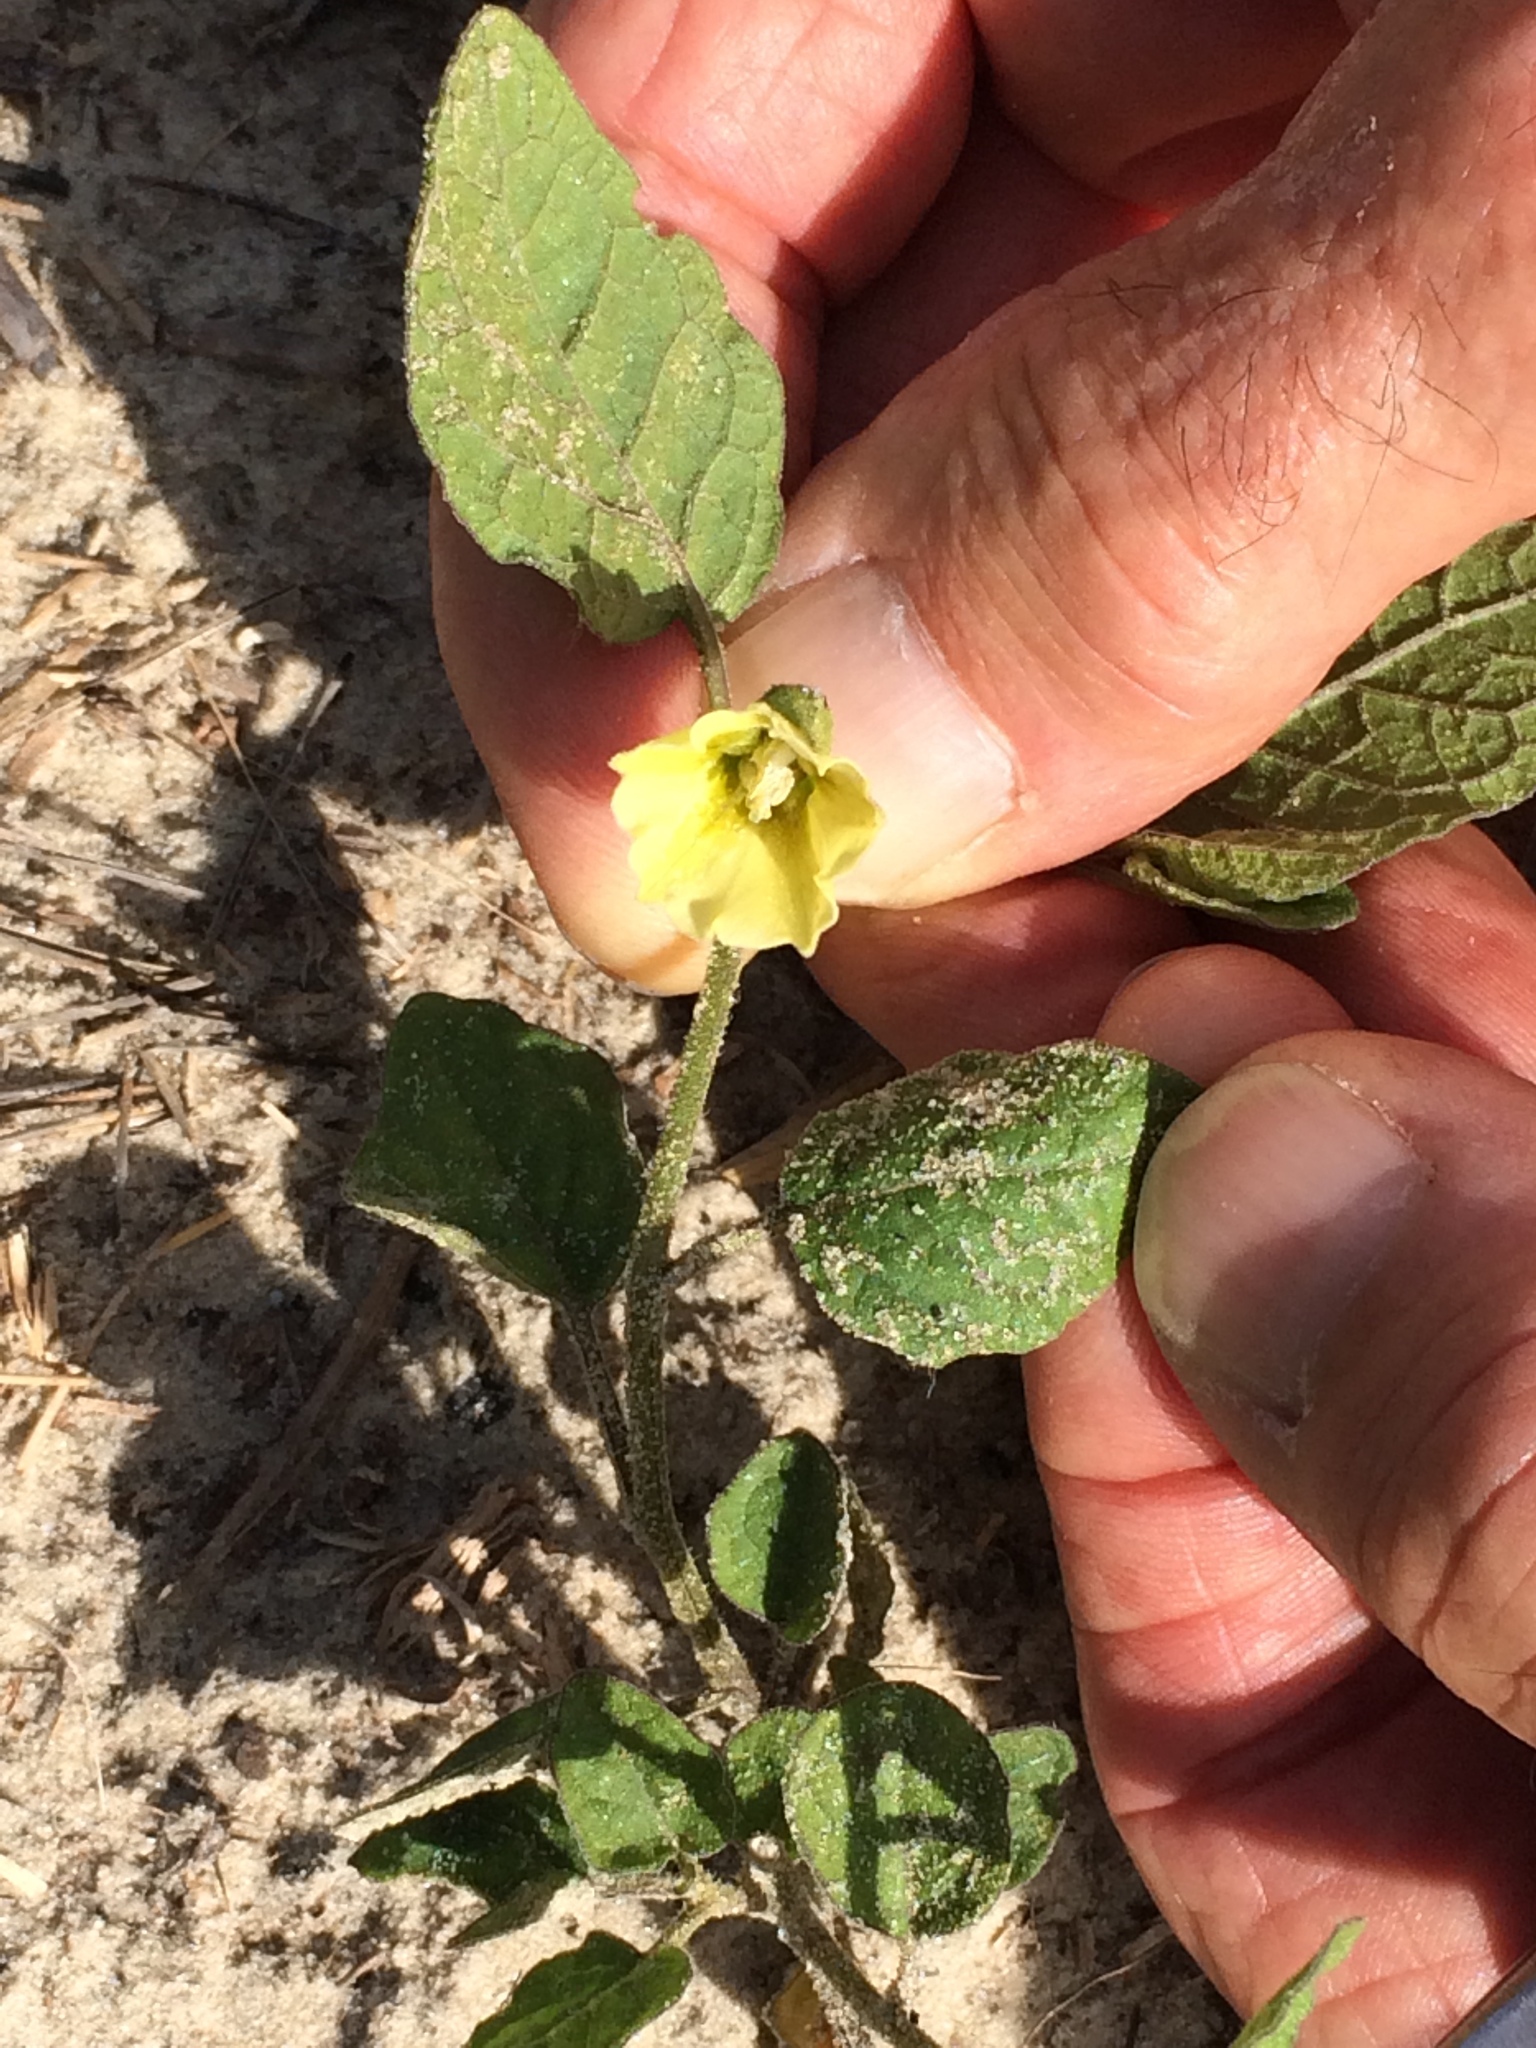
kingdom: Plantae
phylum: Tracheophyta
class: Magnoliopsida
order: Solanales
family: Solanaceae
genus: Physalis
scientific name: Physalis arenicola
